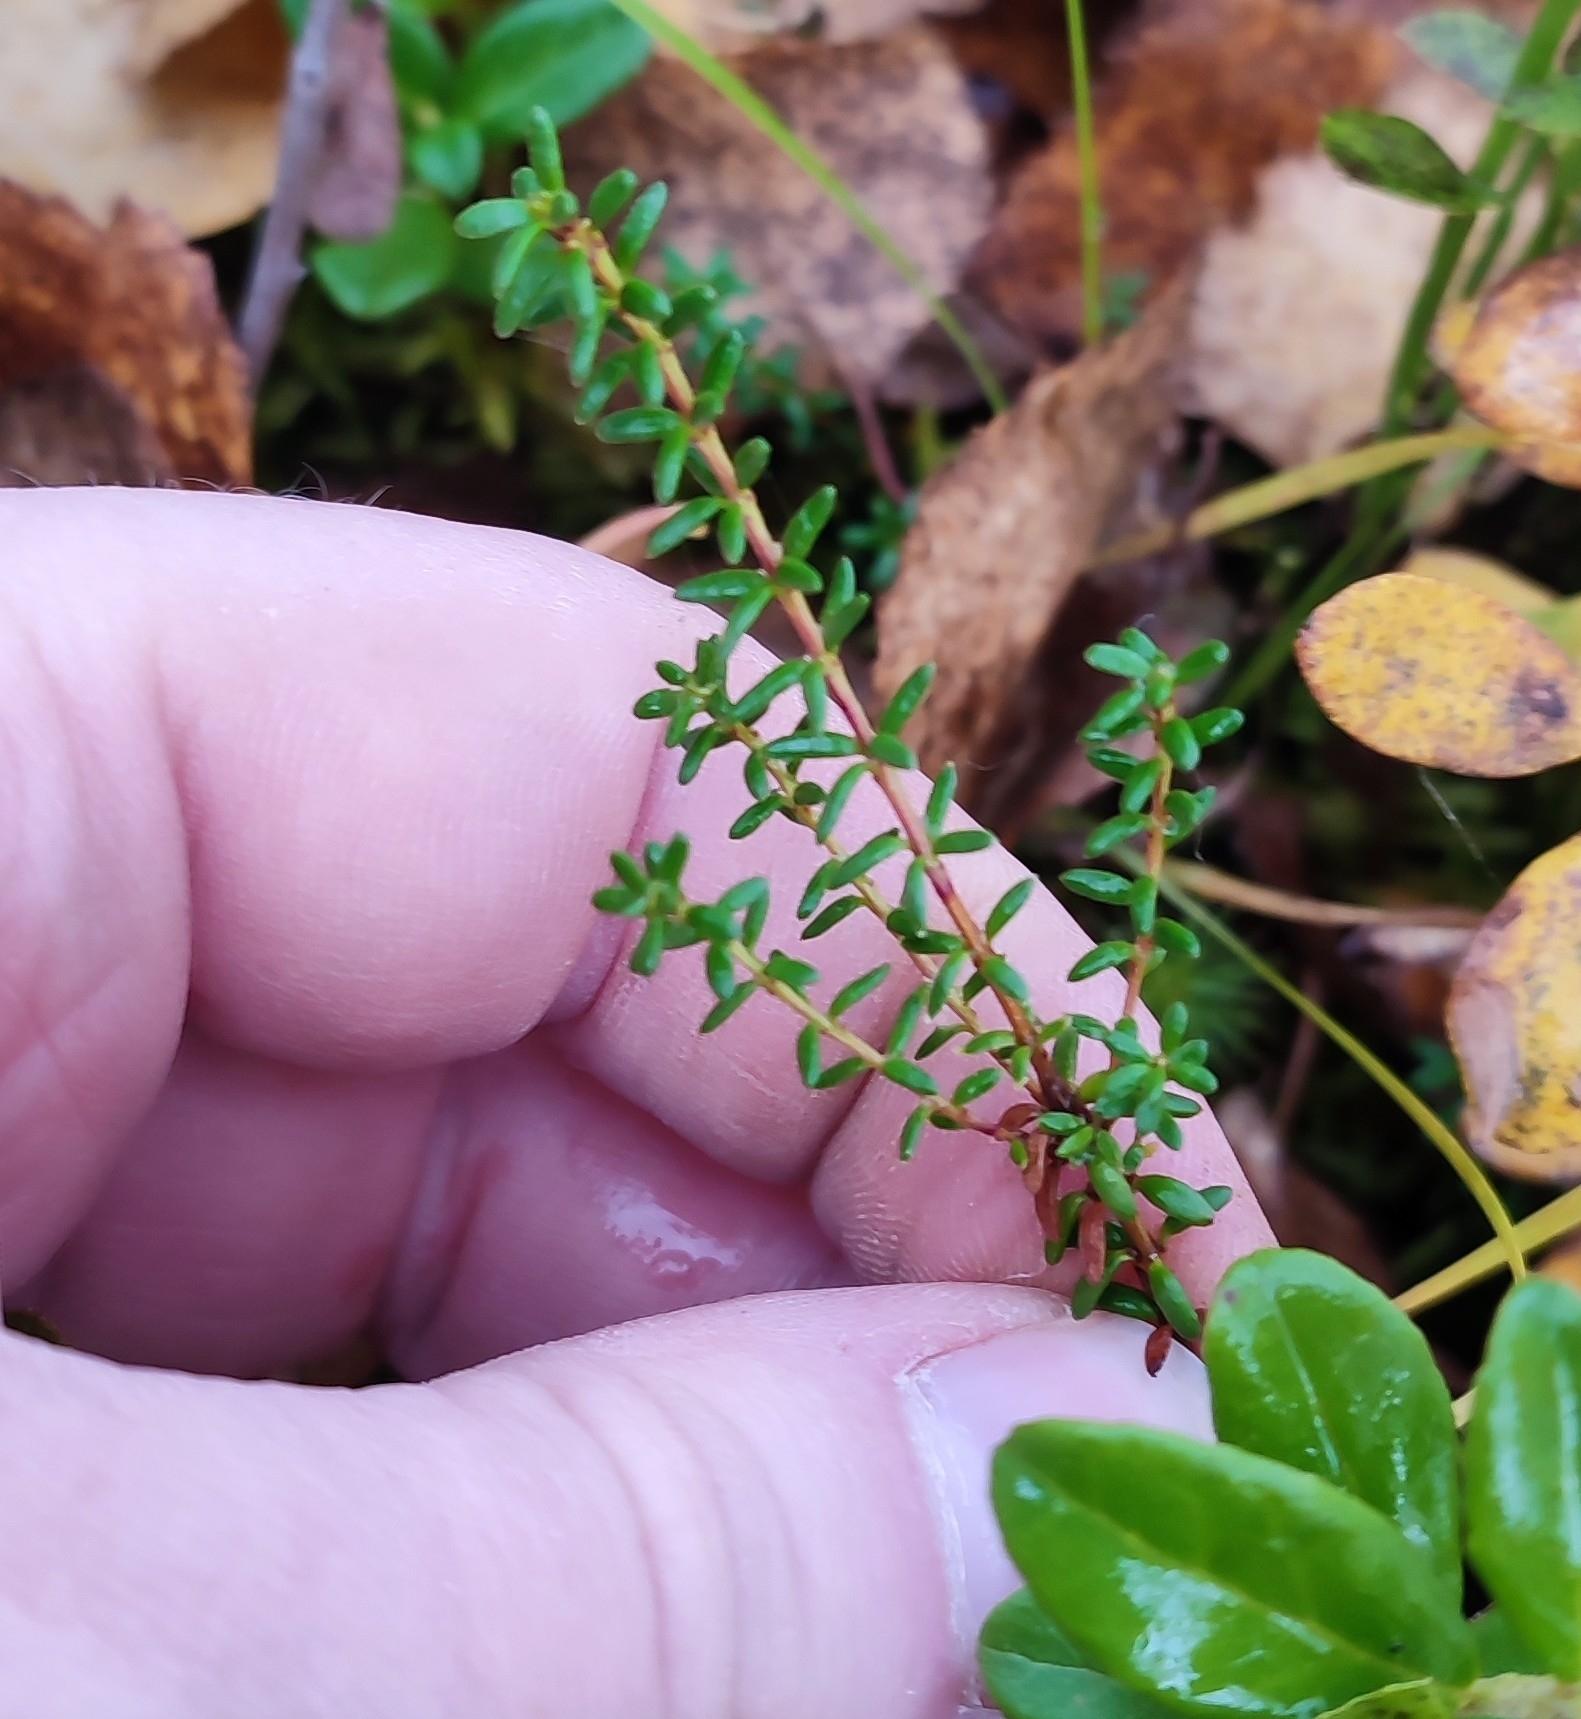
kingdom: Plantae
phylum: Tracheophyta
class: Magnoliopsida
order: Ericales
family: Ericaceae
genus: Empetrum
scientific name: Empetrum nigrum
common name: Black crowberry
